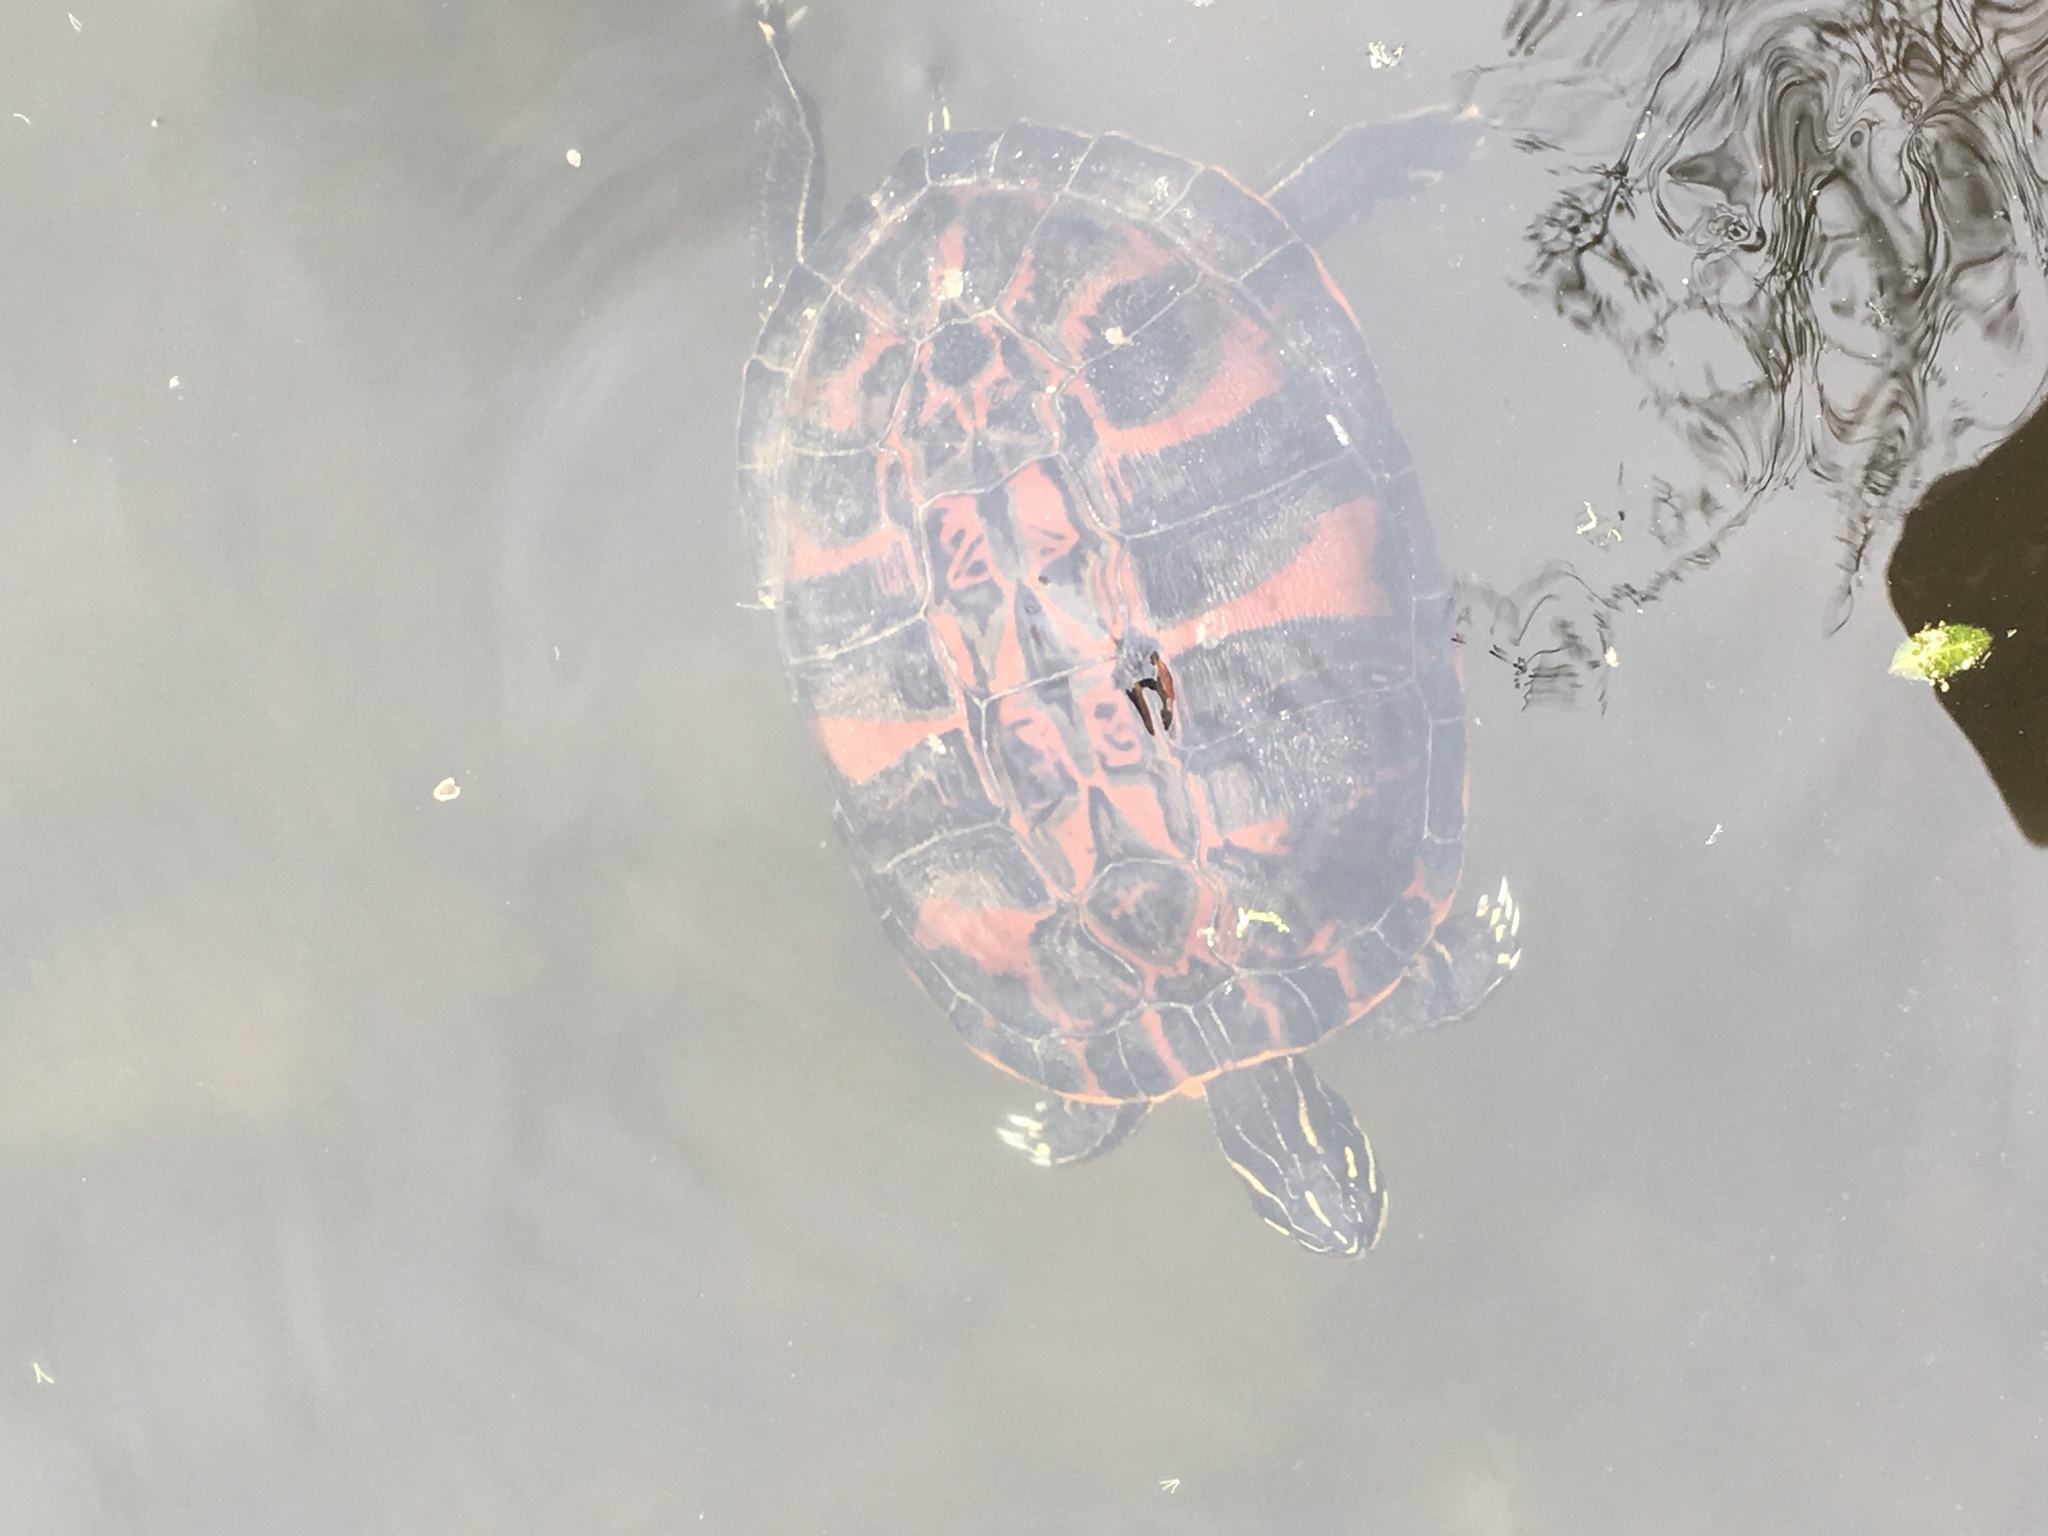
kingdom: Animalia
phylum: Chordata
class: Testudines
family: Emydidae
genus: Pseudemys
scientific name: Pseudemys rubriventris
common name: American red-bellied turtle
